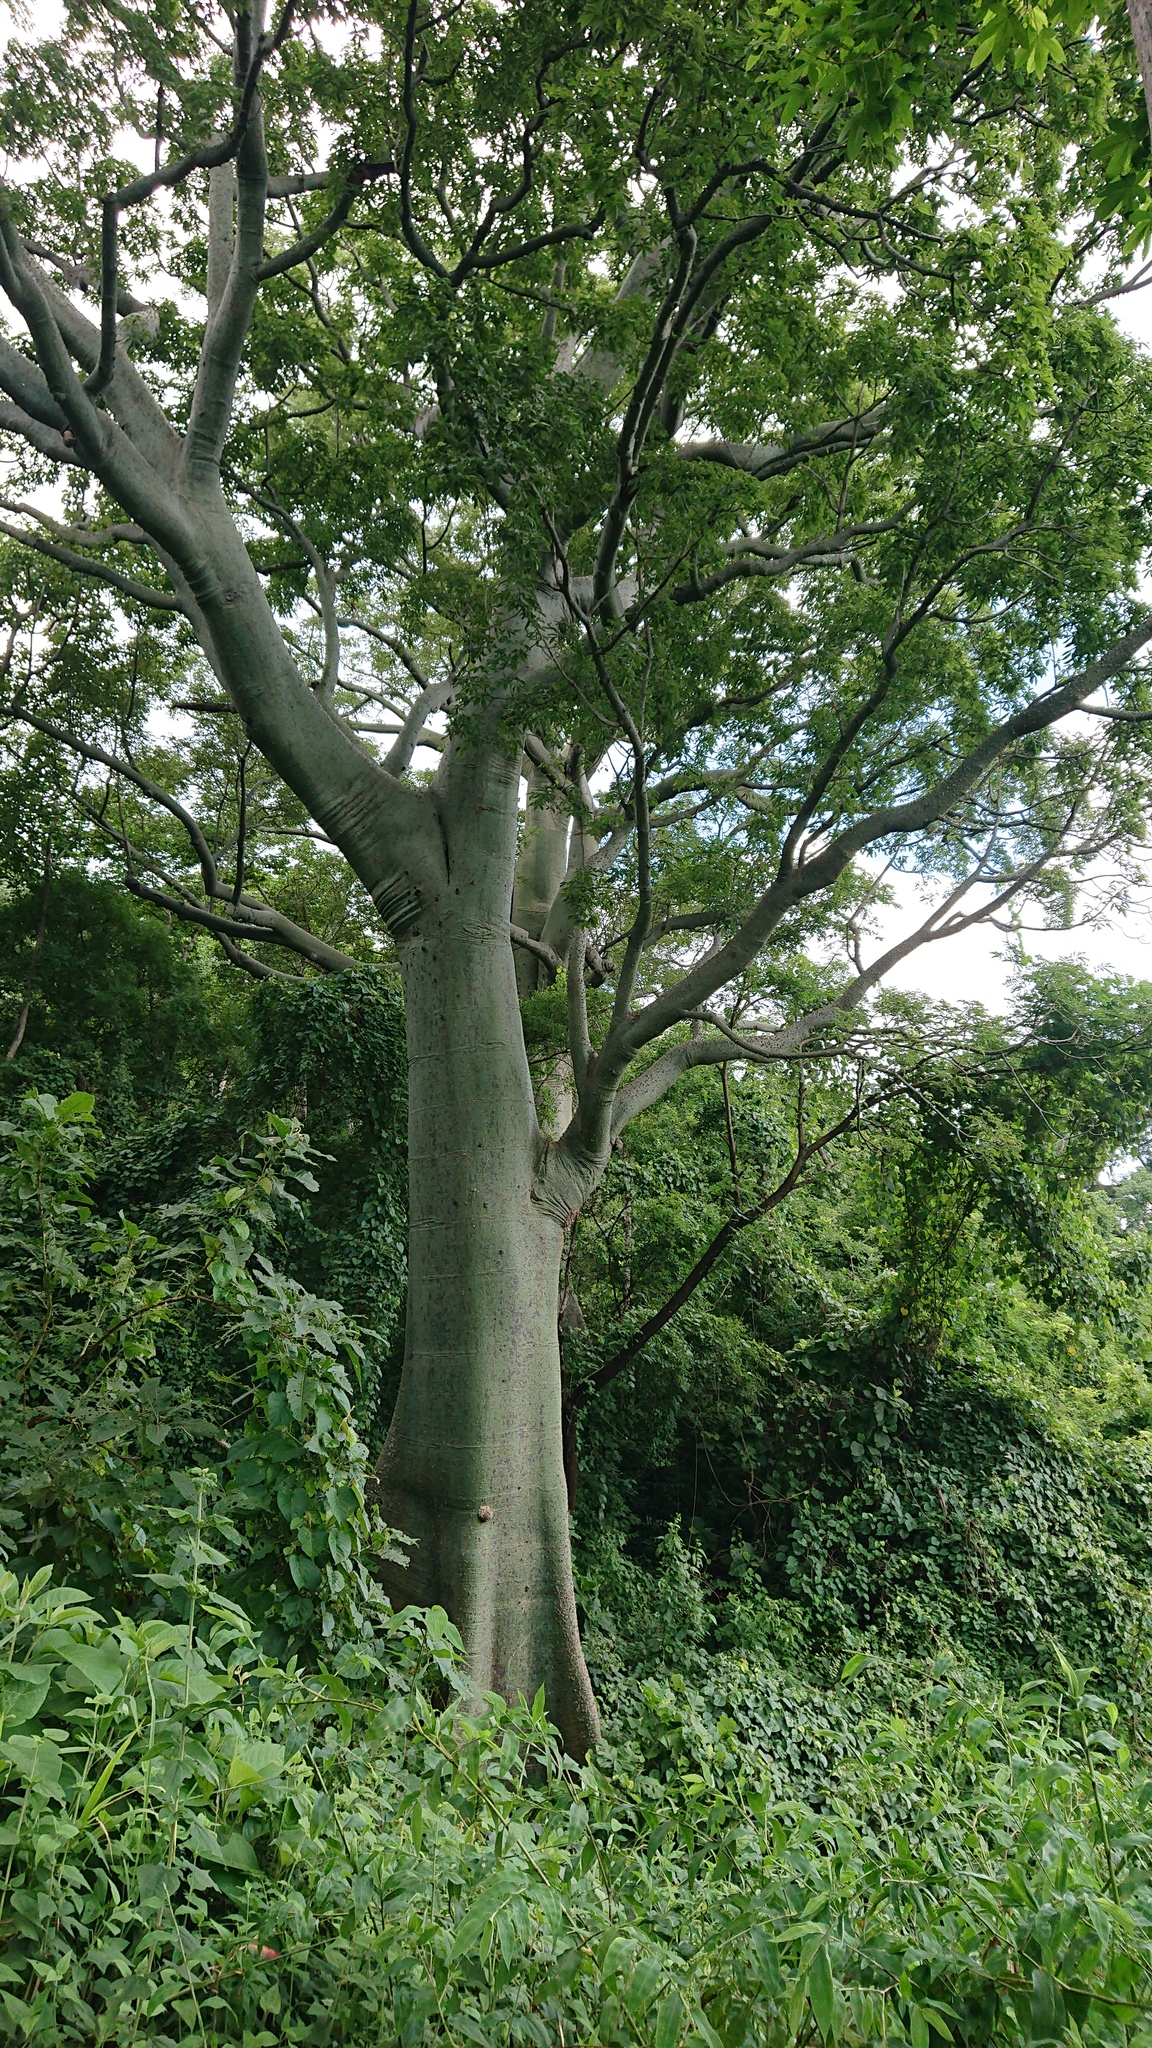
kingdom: Plantae
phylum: Tracheophyta
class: Magnoliopsida
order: Malvales
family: Malvaceae
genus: Ceiba
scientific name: Ceiba trischistandra
